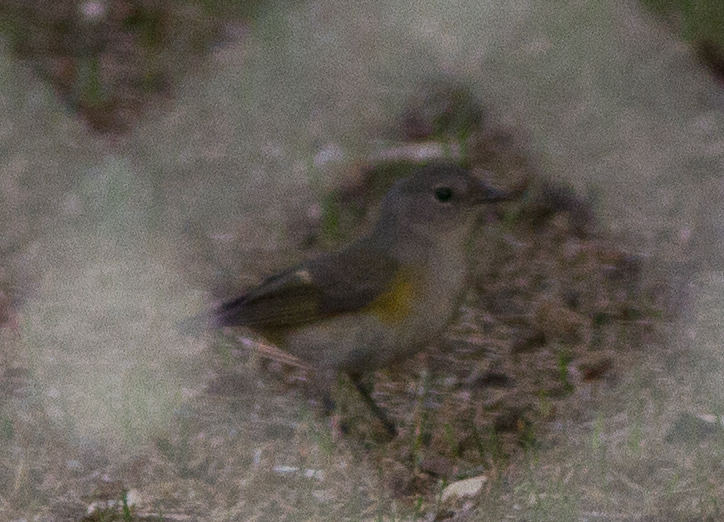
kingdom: Animalia
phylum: Chordata
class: Aves
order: Passeriformes
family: Parulidae
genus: Setophaga
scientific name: Setophaga ruticilla
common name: American redstart
